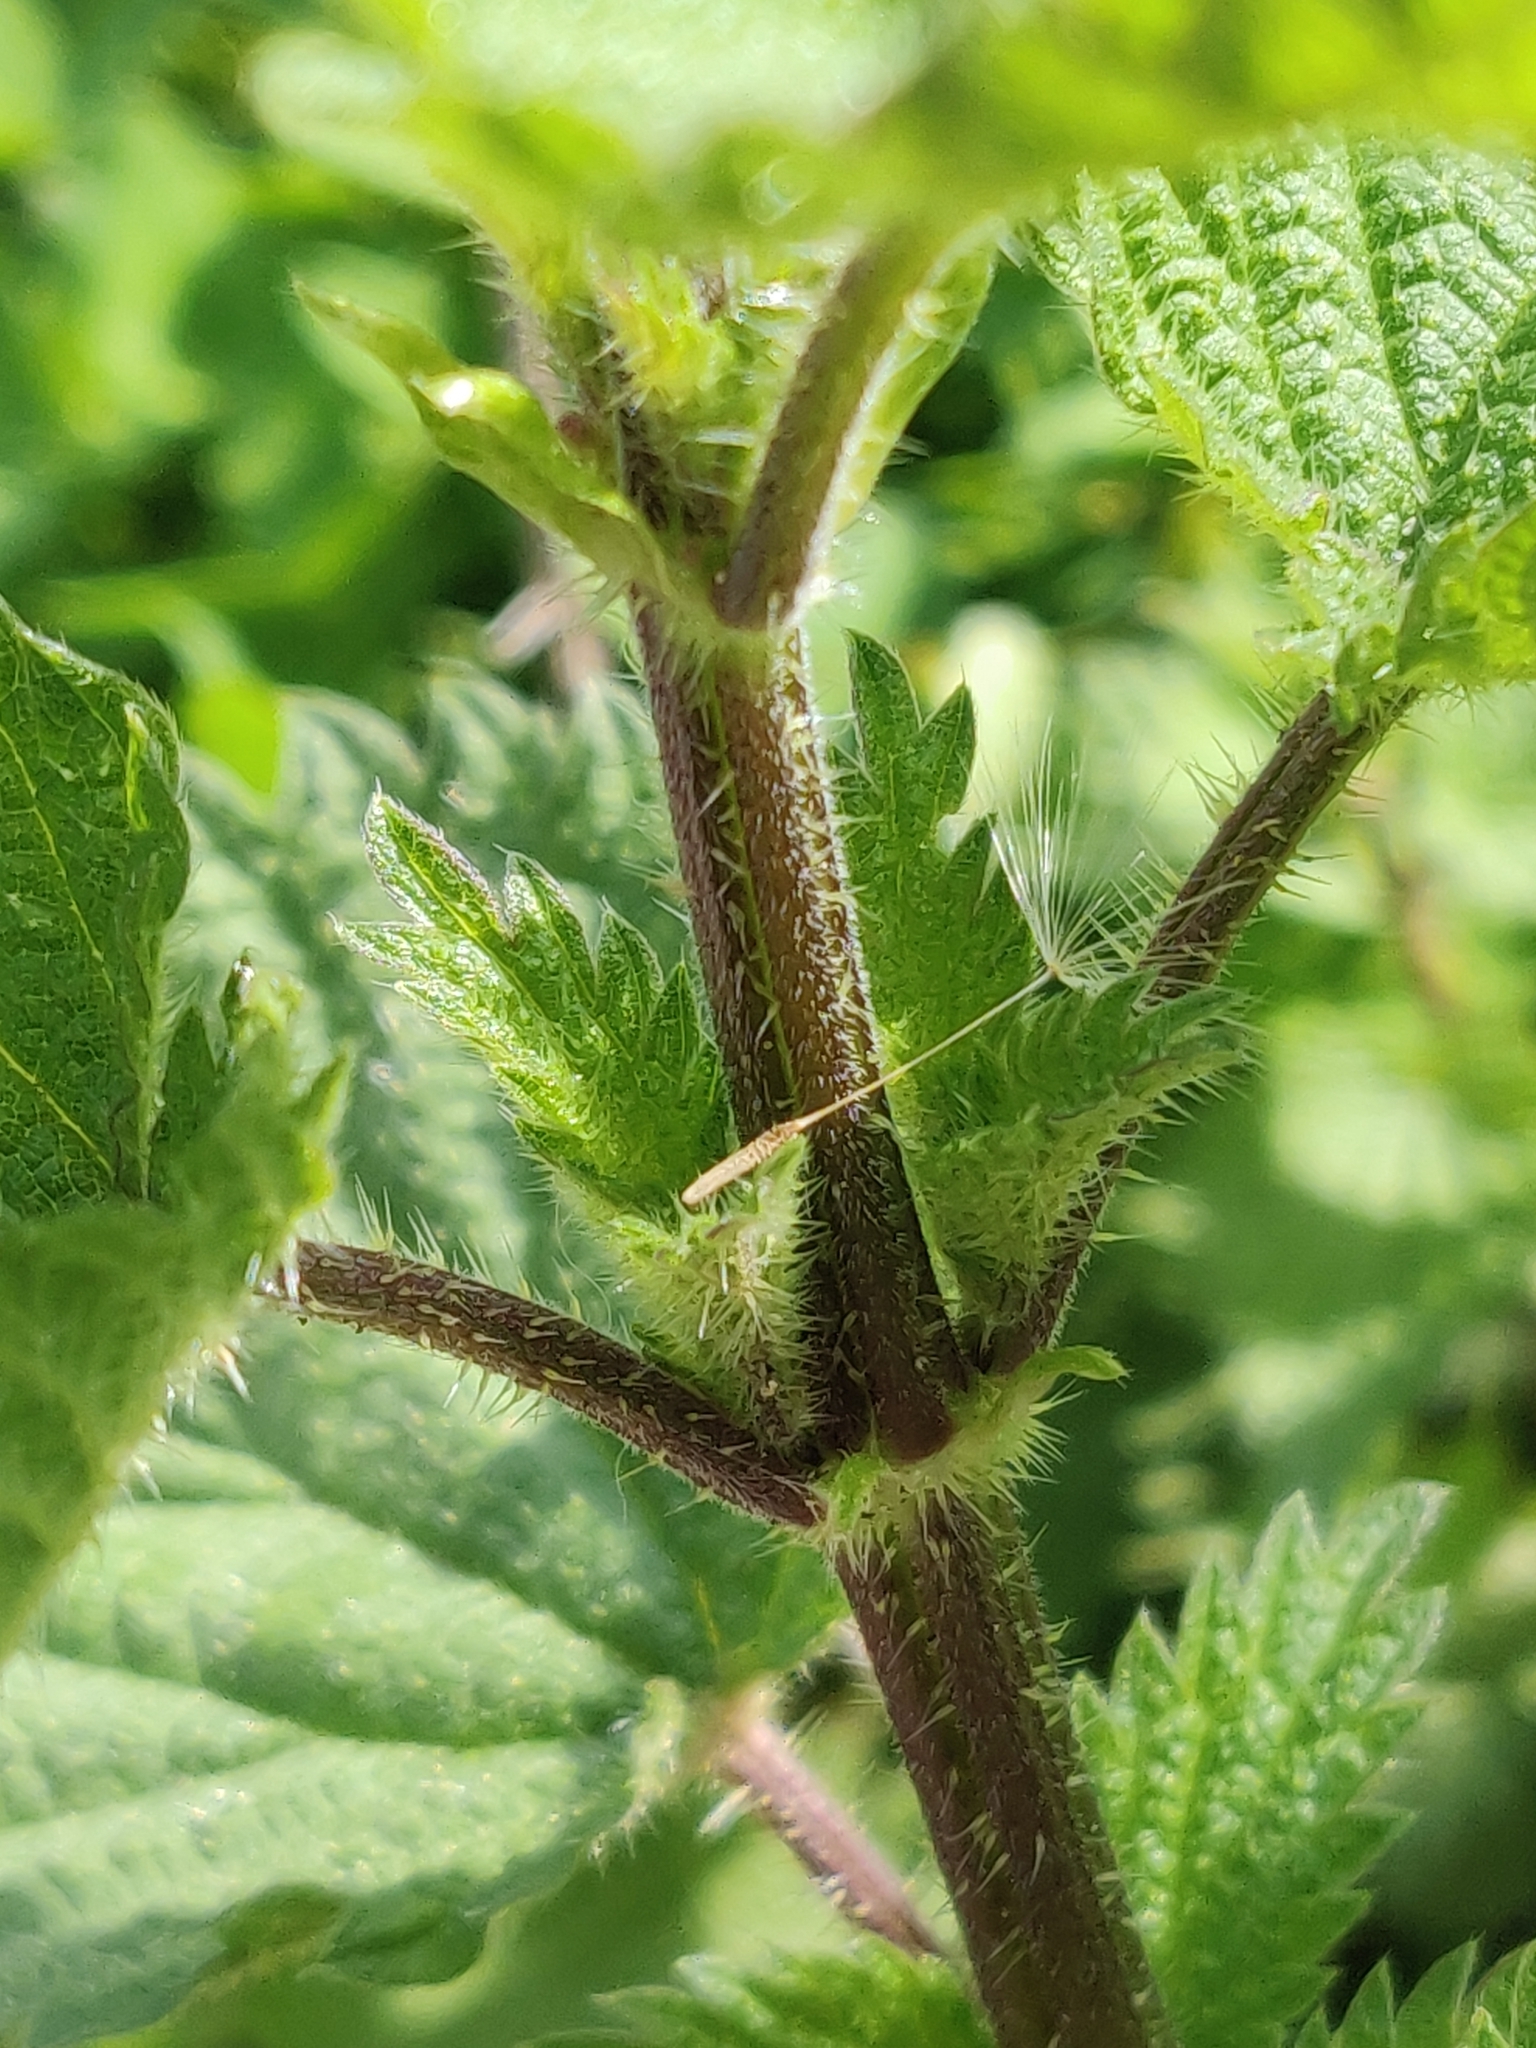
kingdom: Plantae
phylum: Tracheophyta
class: Magnoliopsida
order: Rosales
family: Urticaceae
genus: Urtica
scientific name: Urtica dioica
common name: Common nettle
